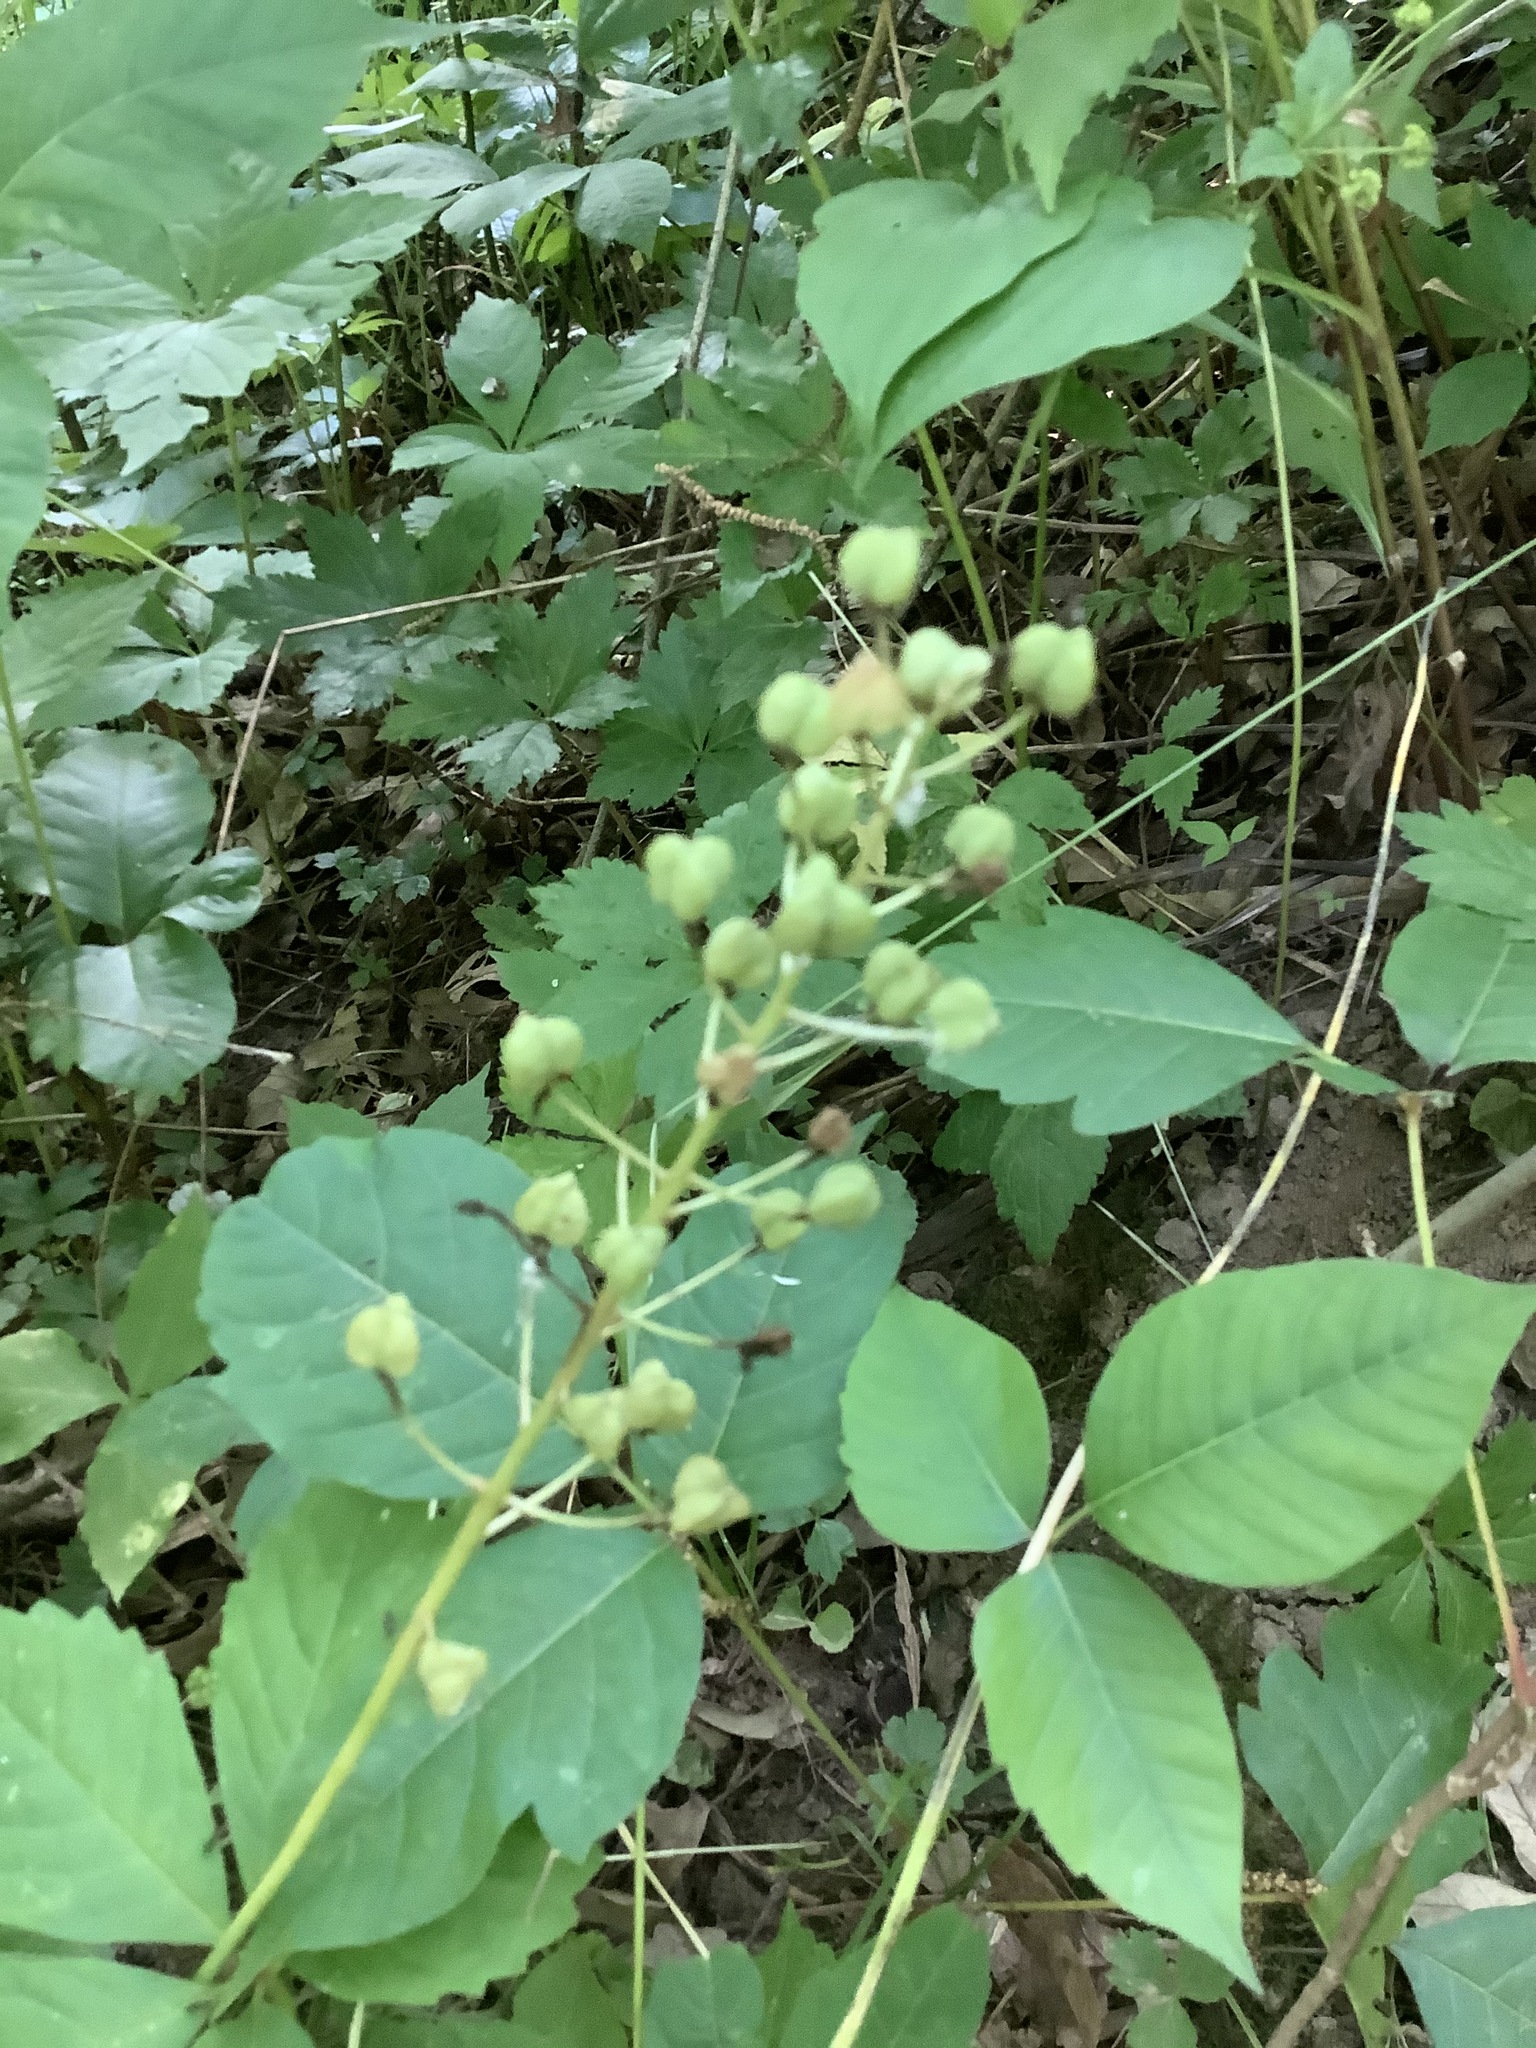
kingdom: Plantae
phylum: Tracheophyta
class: Liliopsida
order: Asparagales
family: Asparagaceae
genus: Camassia
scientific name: Camassia scilloides
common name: Wild hyacinth
